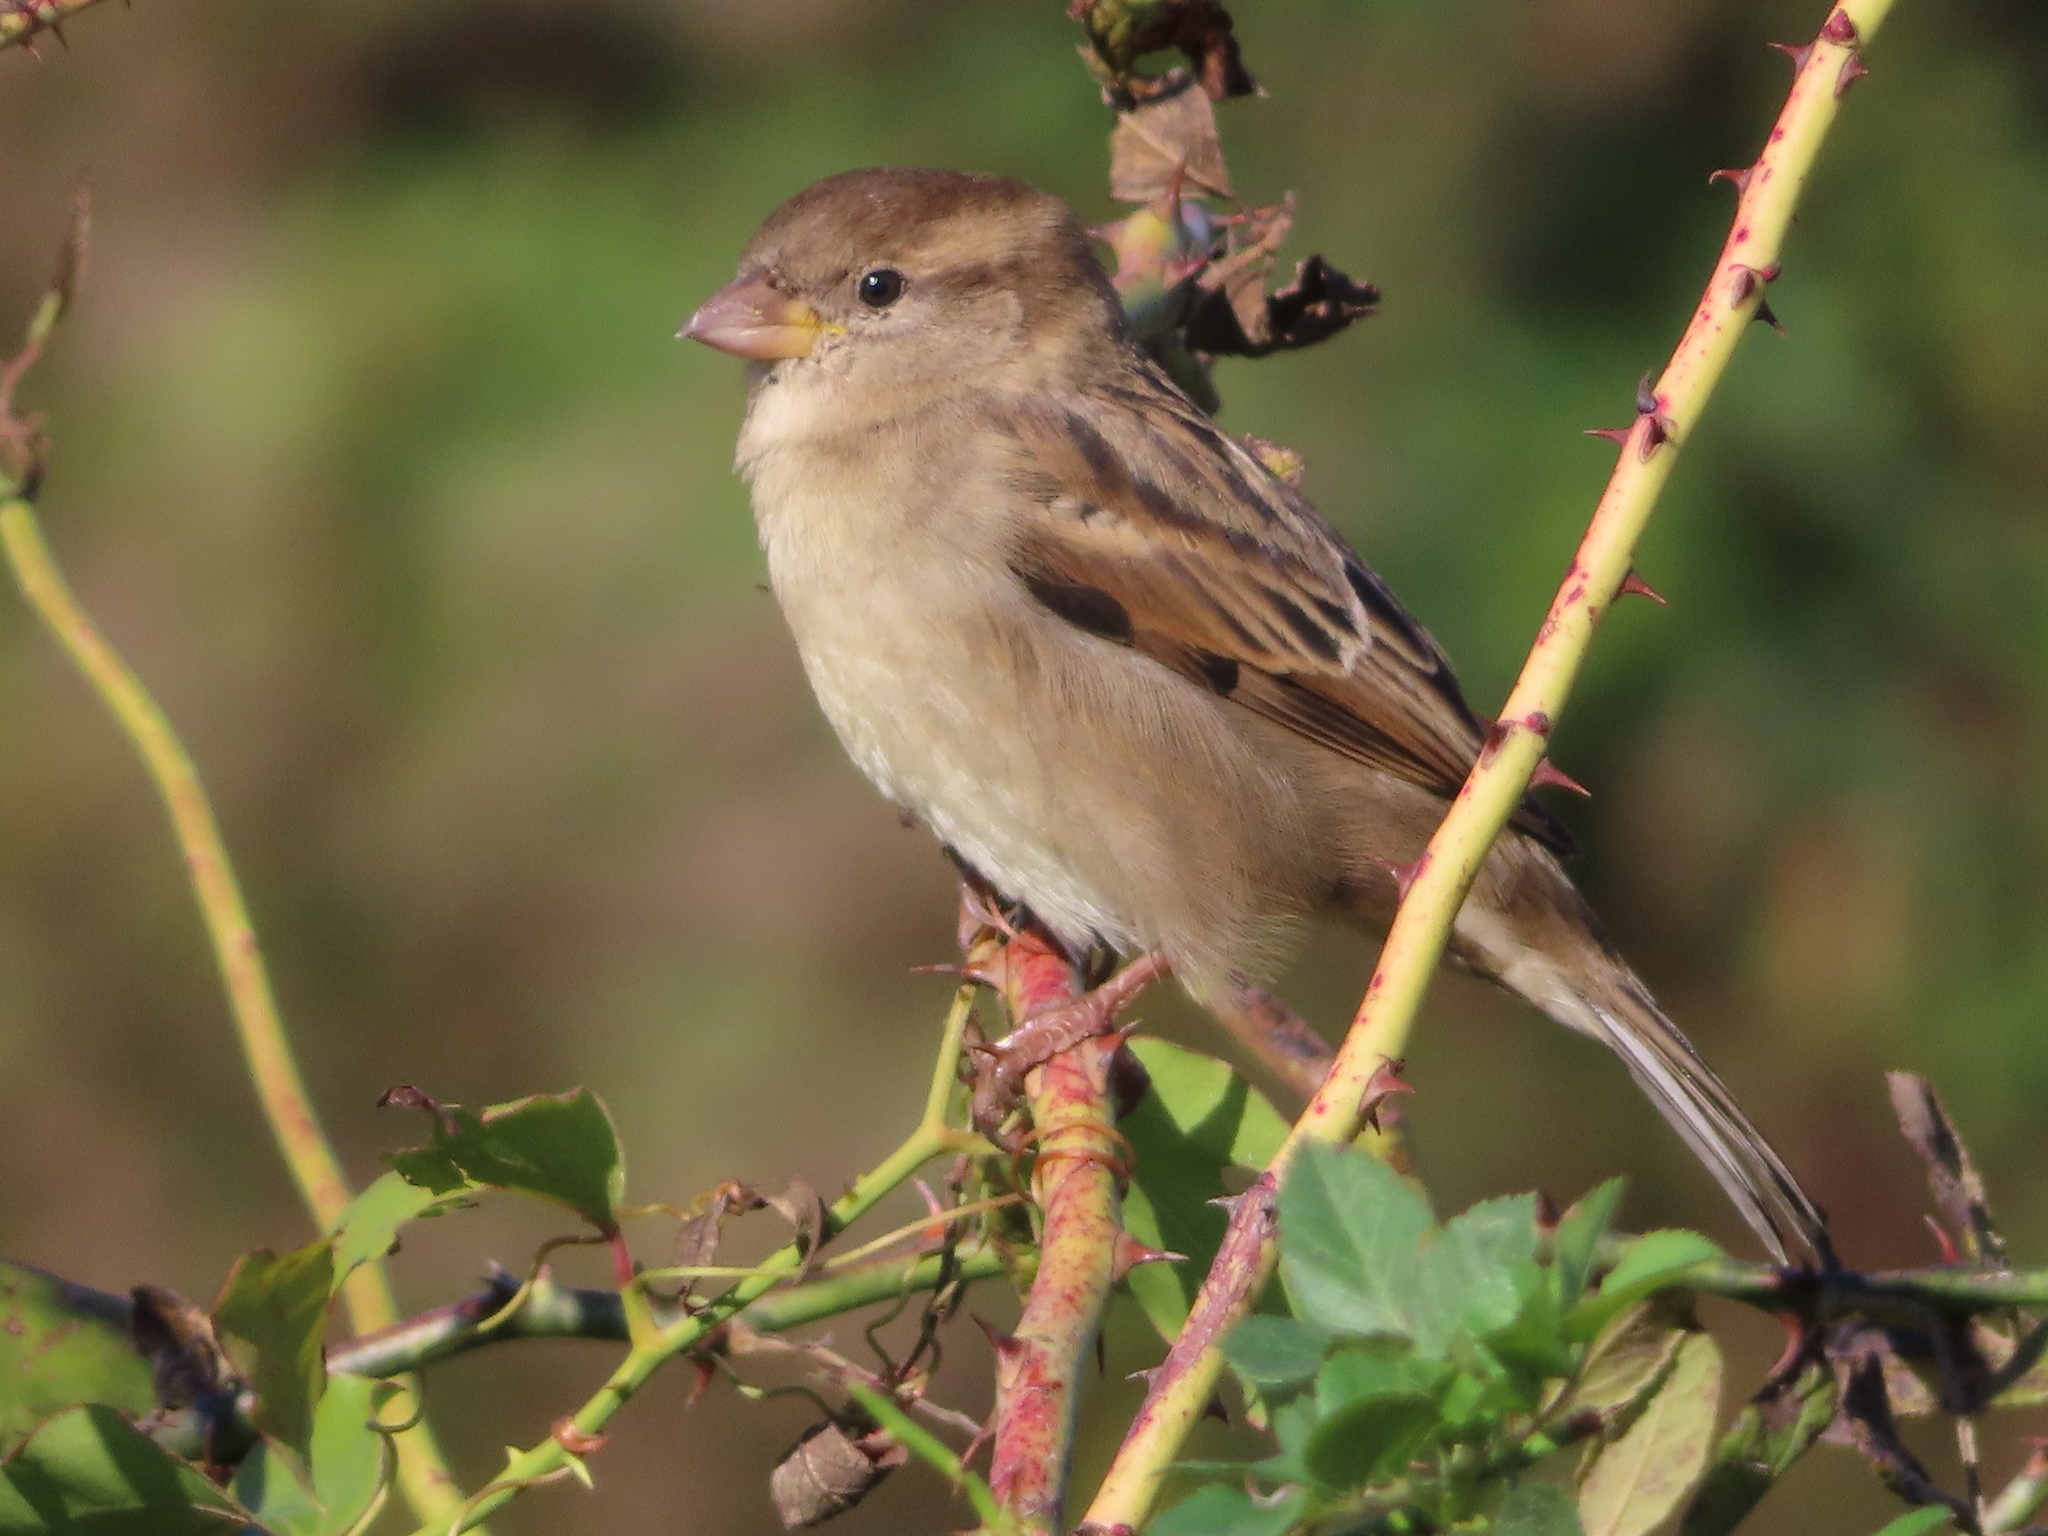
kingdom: Animalia
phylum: Chordata
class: Aves
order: Passeriformes
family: Passeridae
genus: Passer
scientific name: Passer domesticus
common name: House sparrow
